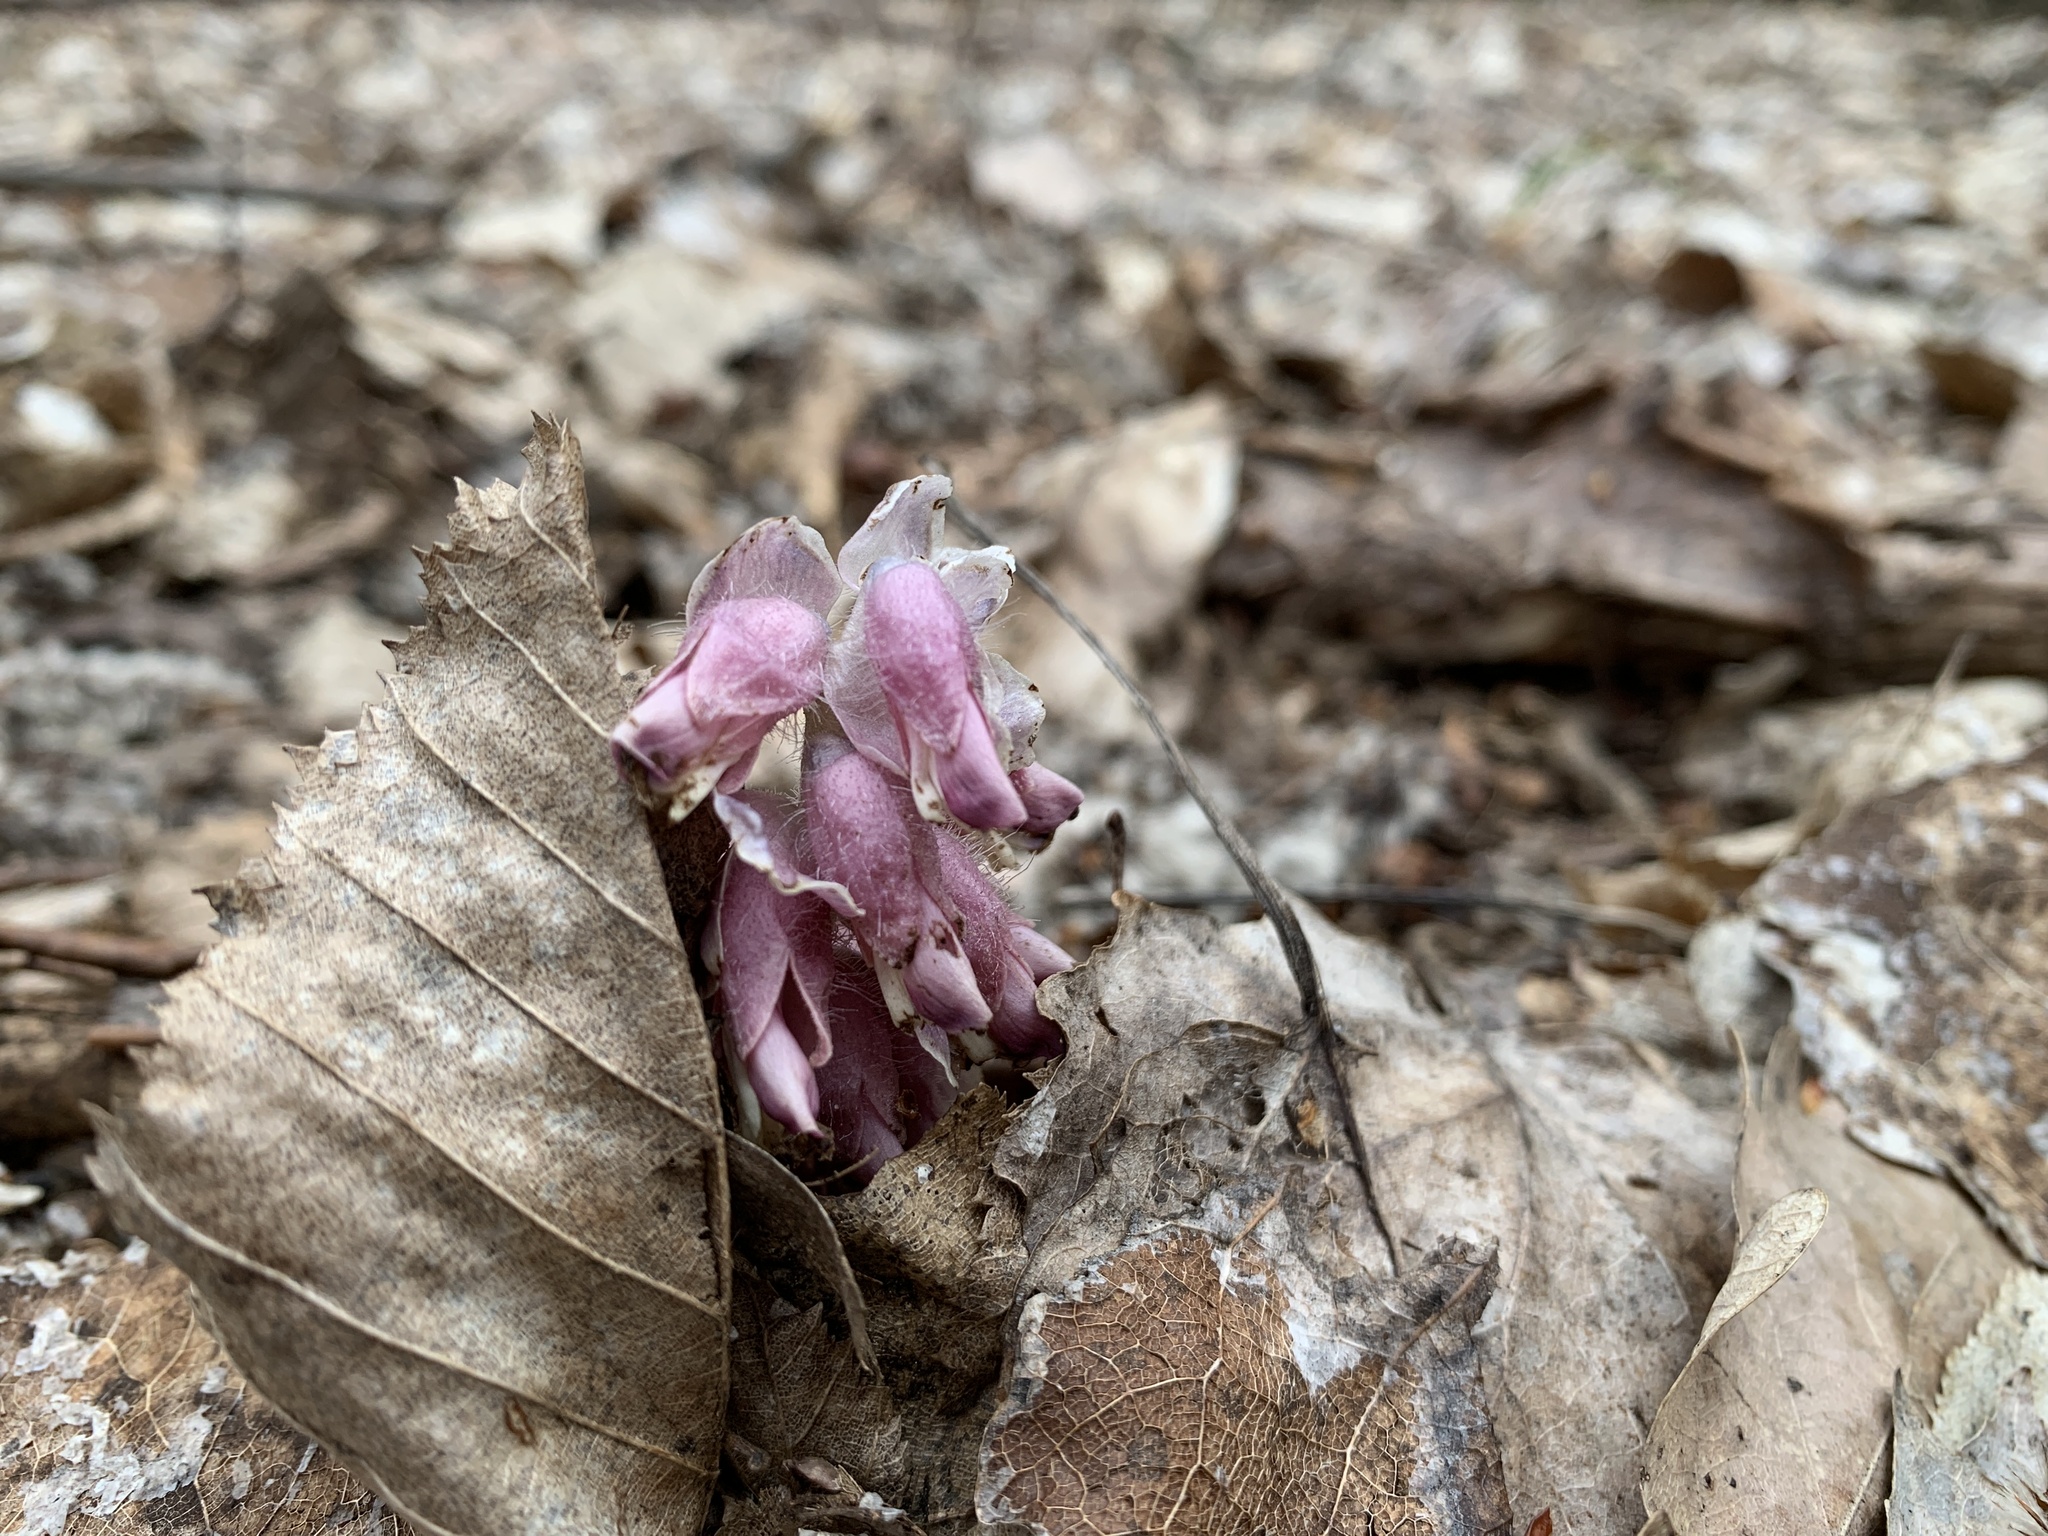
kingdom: Plantae
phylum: Tracheophyta
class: Magnoliopsida
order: Lamiales
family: Orobanchaceae
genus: Lathraea
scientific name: Lathraea squamaria
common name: Toothwort
